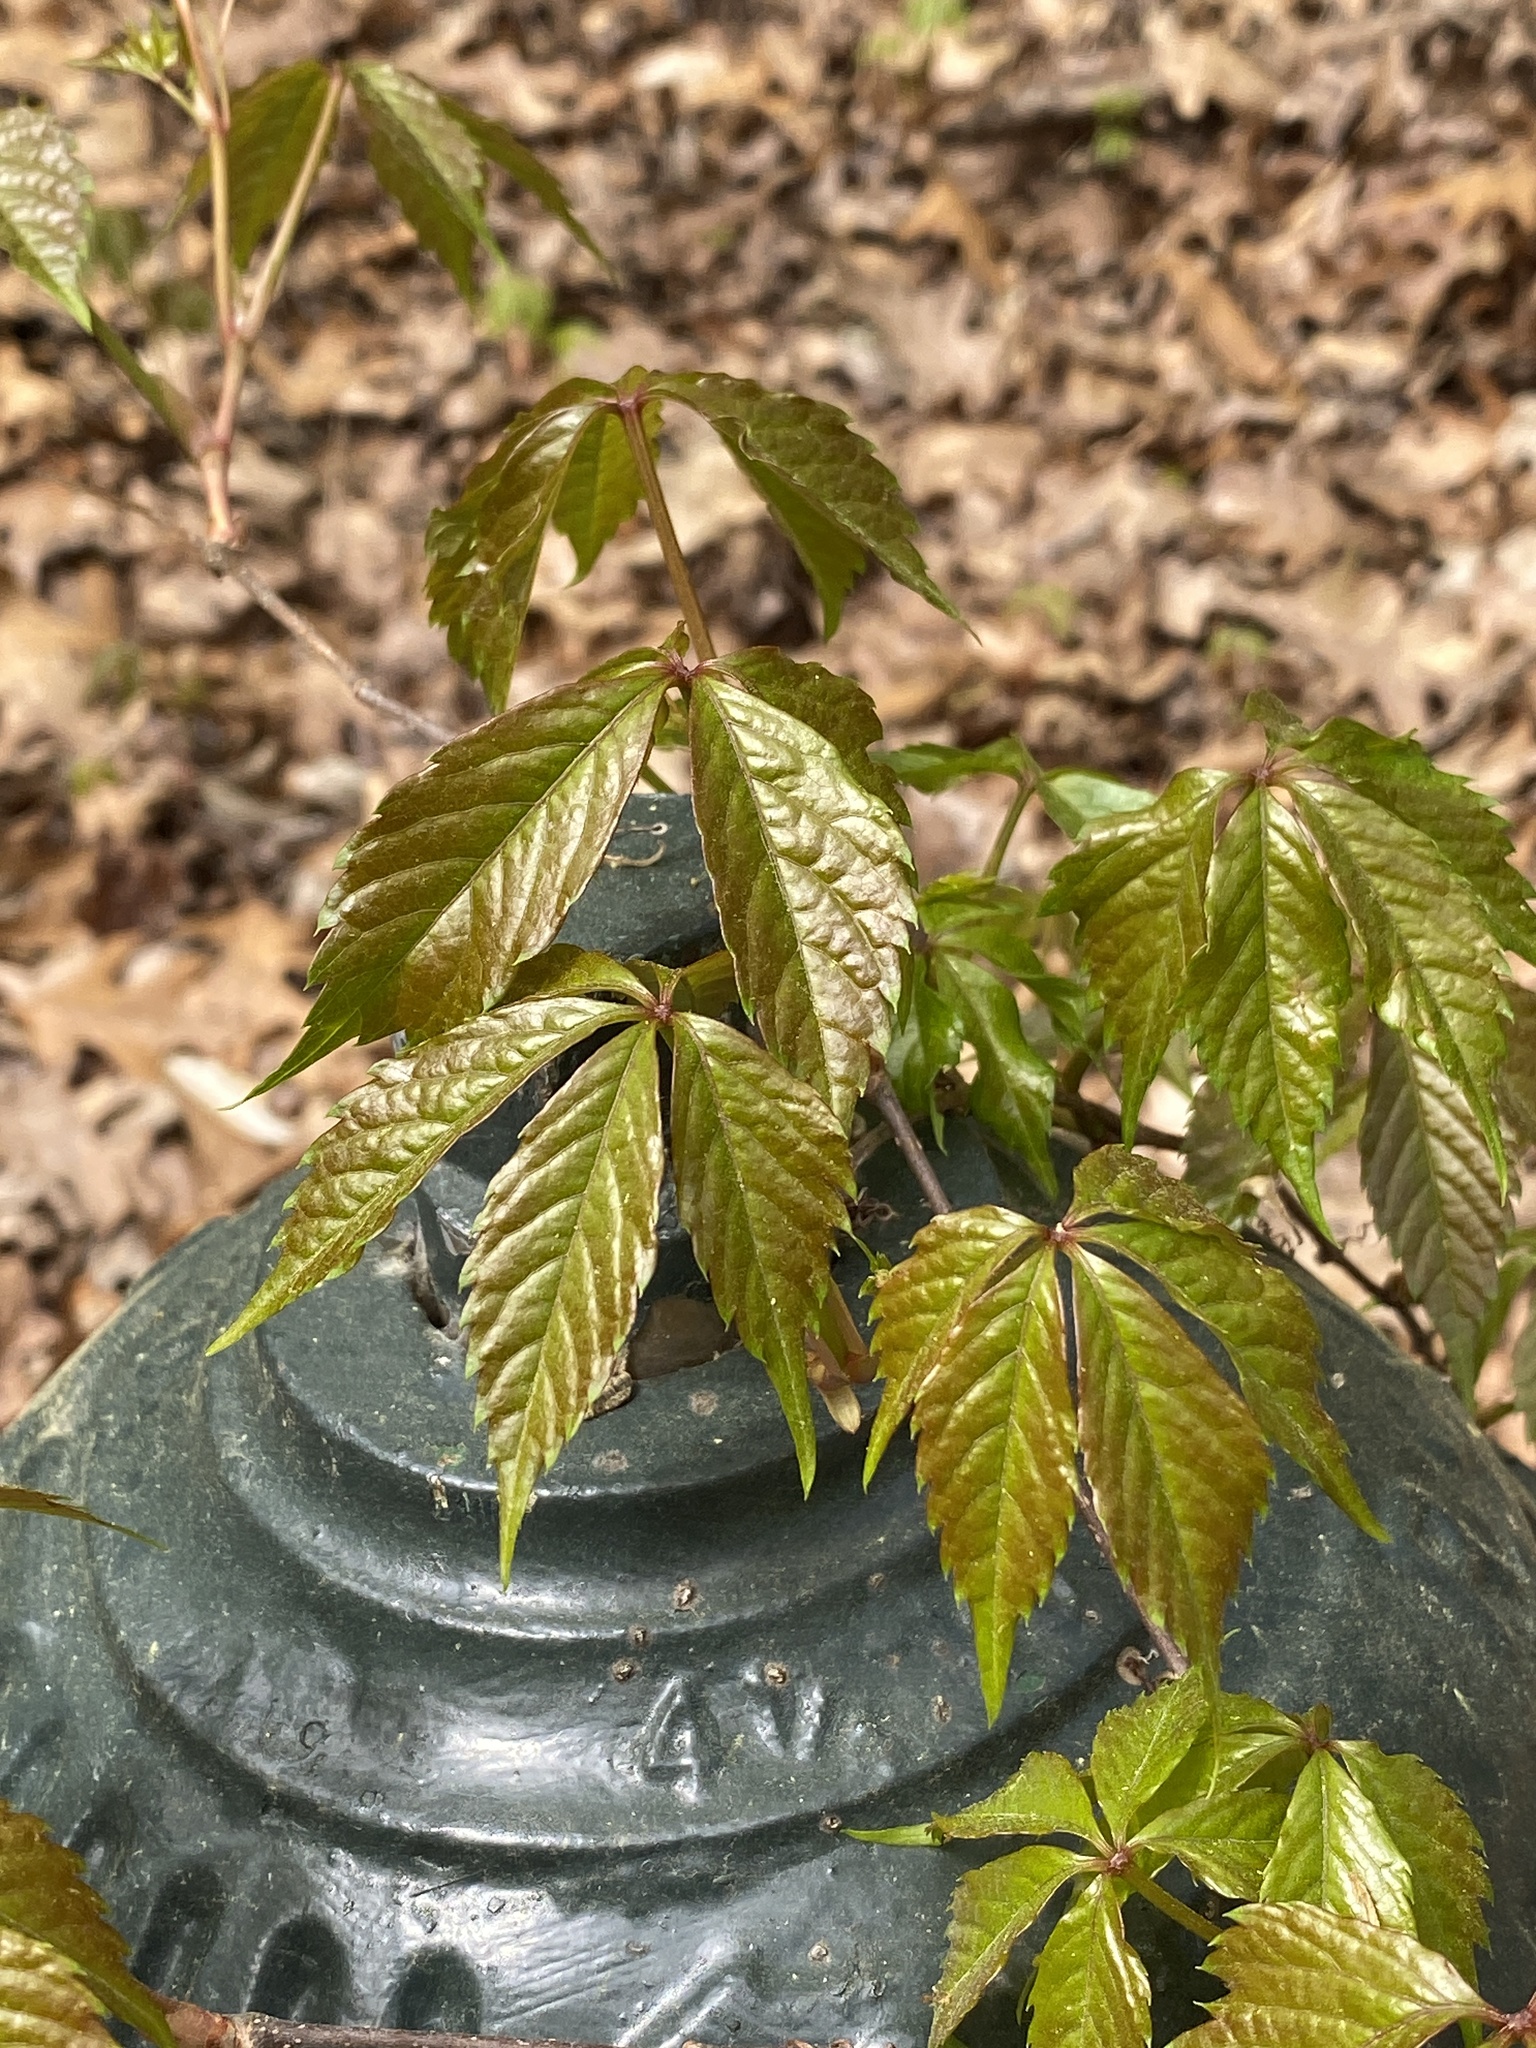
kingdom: Plantae
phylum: Tracheophyta
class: Magnoliopsida
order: Vitales
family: Vitaceae
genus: Parthenocissus
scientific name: Parthenocissus quinquefolia
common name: Virginia-creeper
